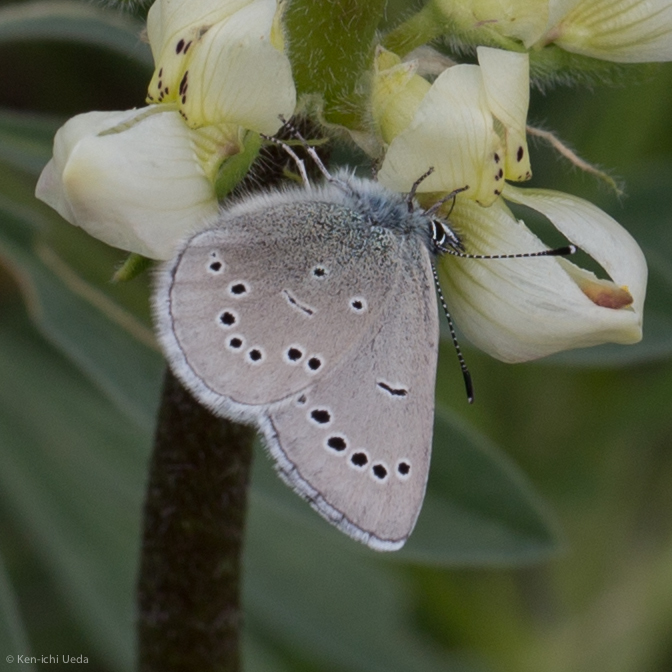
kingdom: Animalia
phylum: Arthropoda
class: Insecta
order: Lepidoptera
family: Lycaenidae
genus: Glaucopsyche
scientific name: Glaucopsyche lygdamus
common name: Silvery blue
